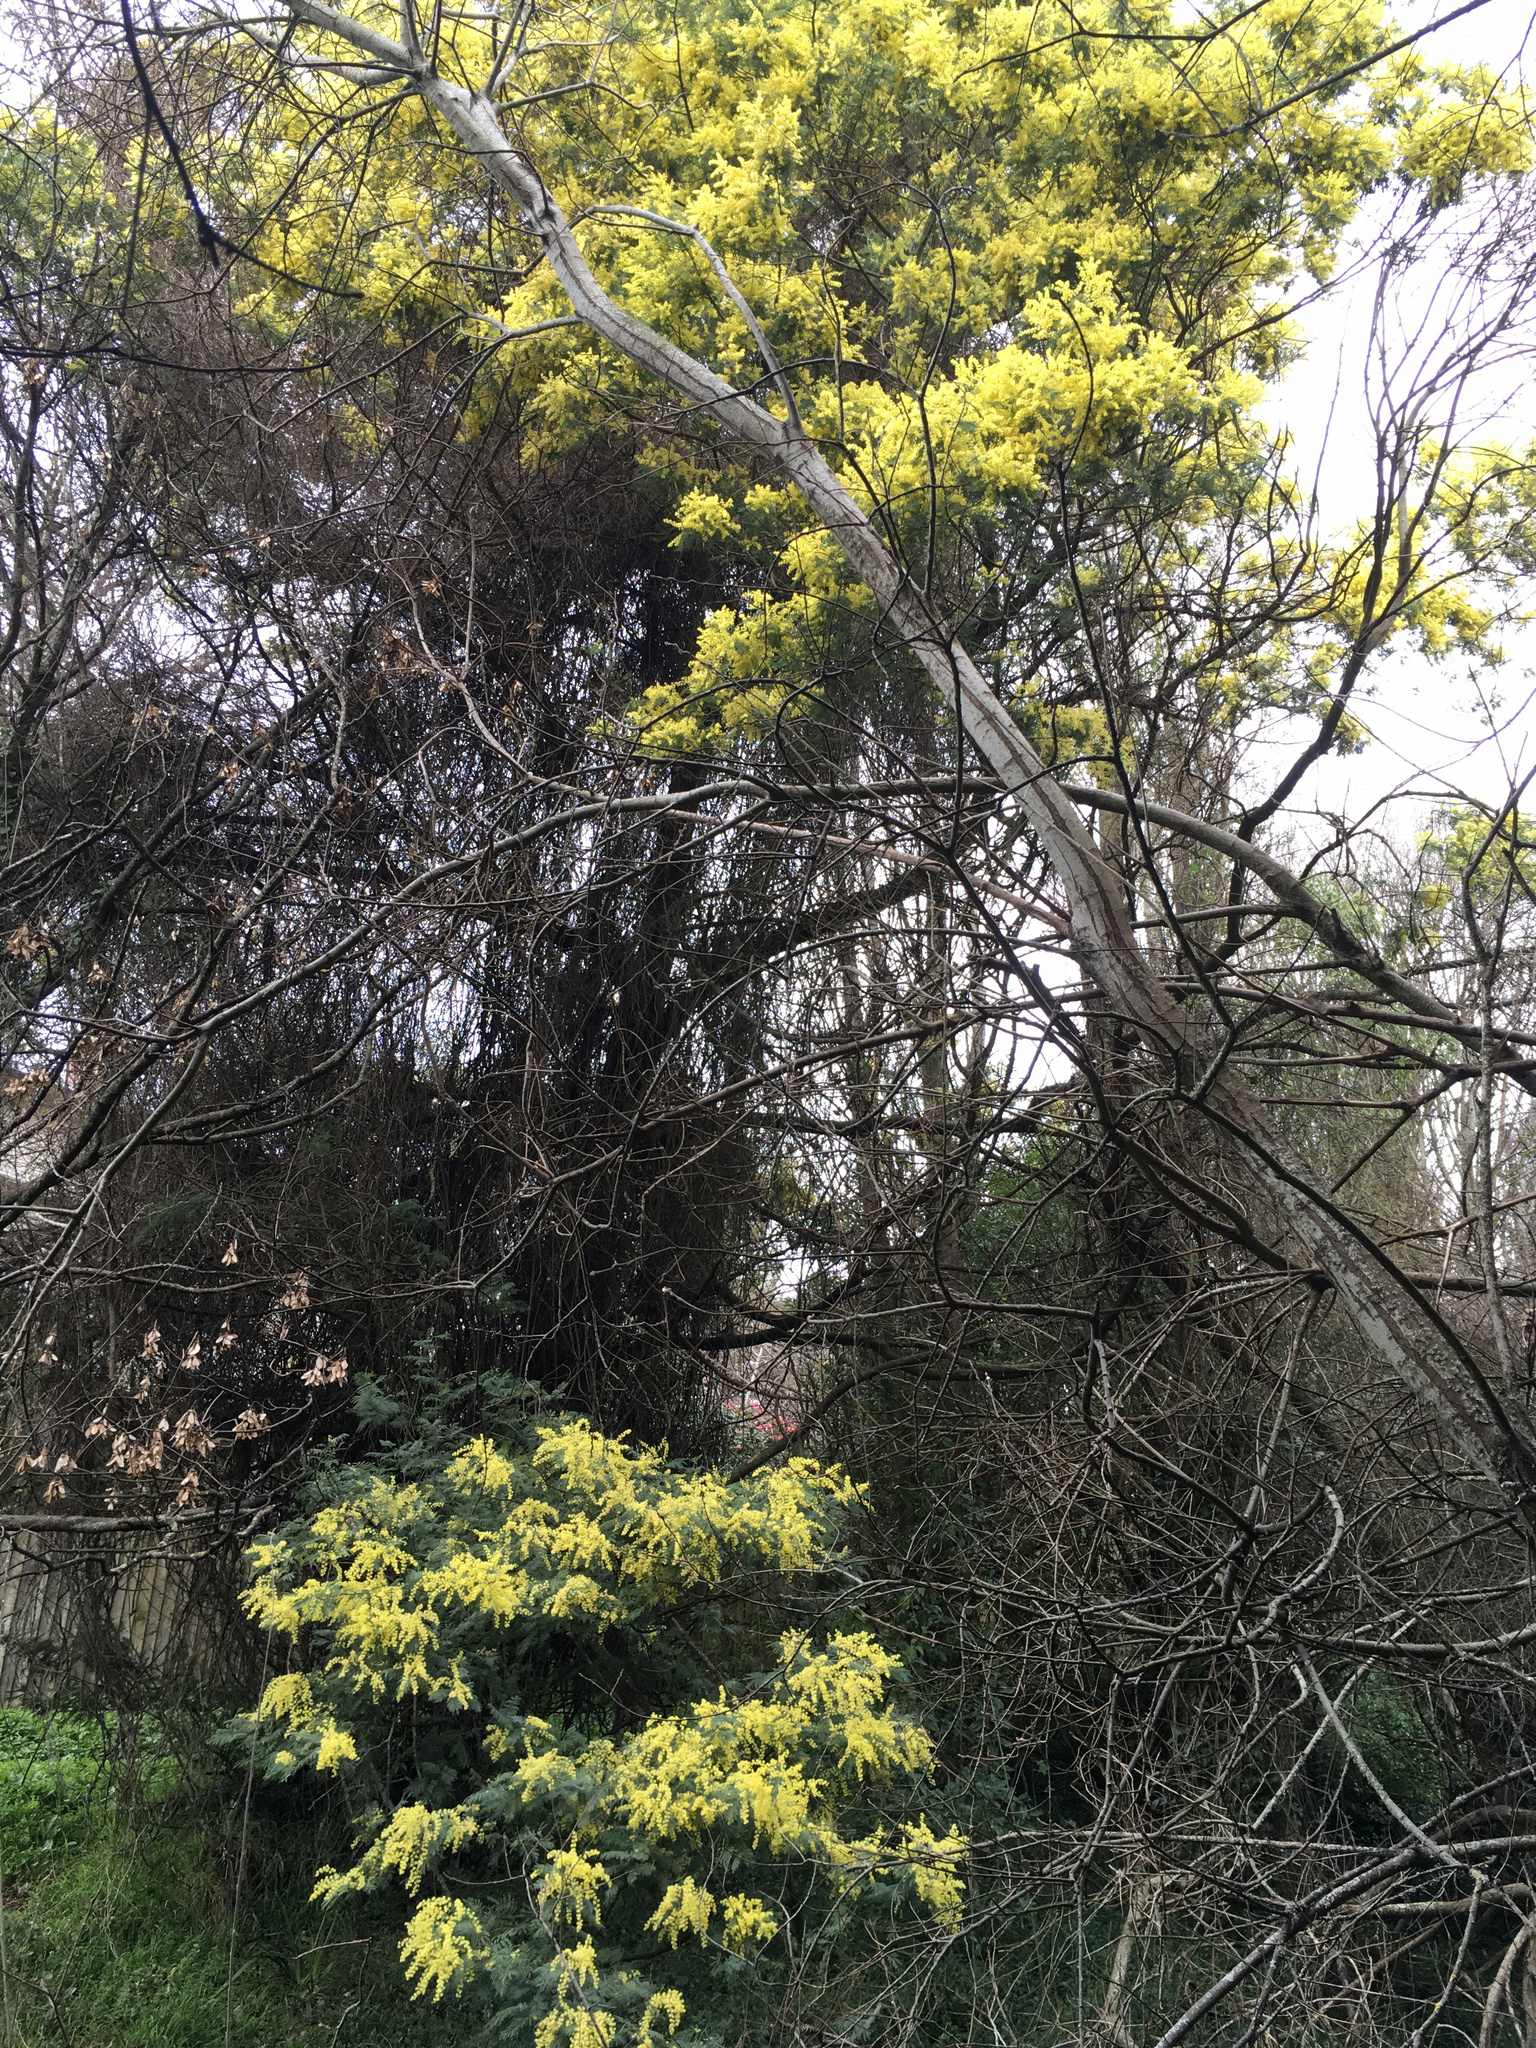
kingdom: Plantae
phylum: Tracheophyta
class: Magnoliopsida
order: Fabales
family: Fabaceae
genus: Acacia
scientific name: Acacia dealbata
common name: Silver wattle
